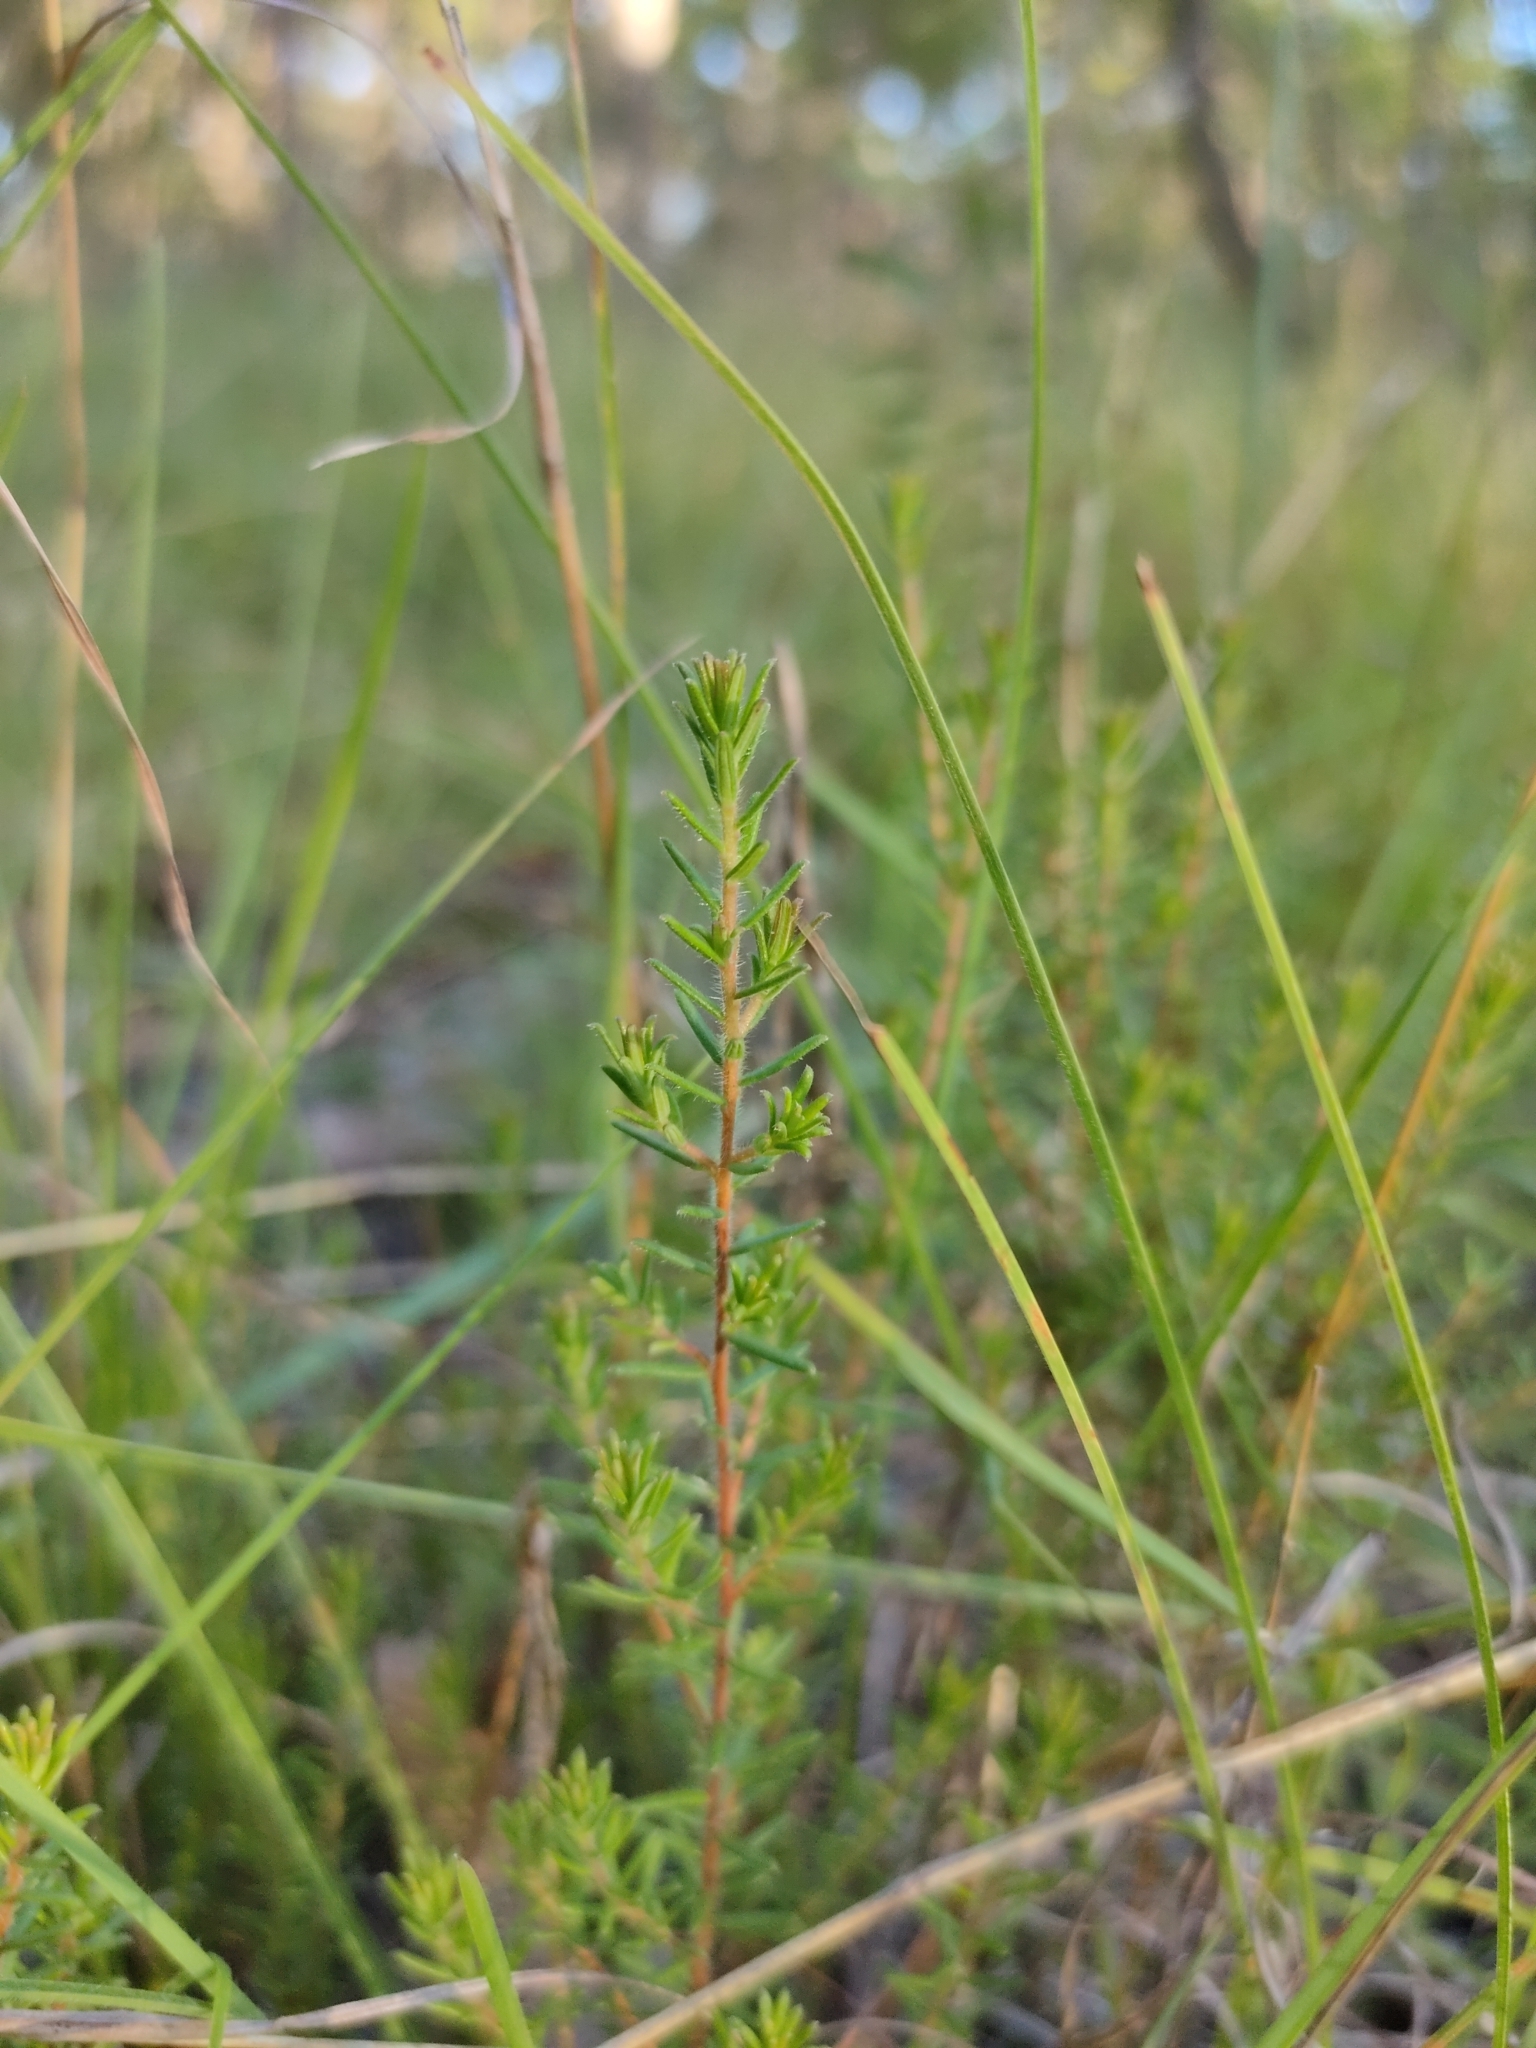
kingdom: Plantae
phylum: Tracheophyta
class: Magnoliopsida
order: Dilleniales
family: Dilleniaceae
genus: Hibbertia
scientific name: Hibbertia vestita
